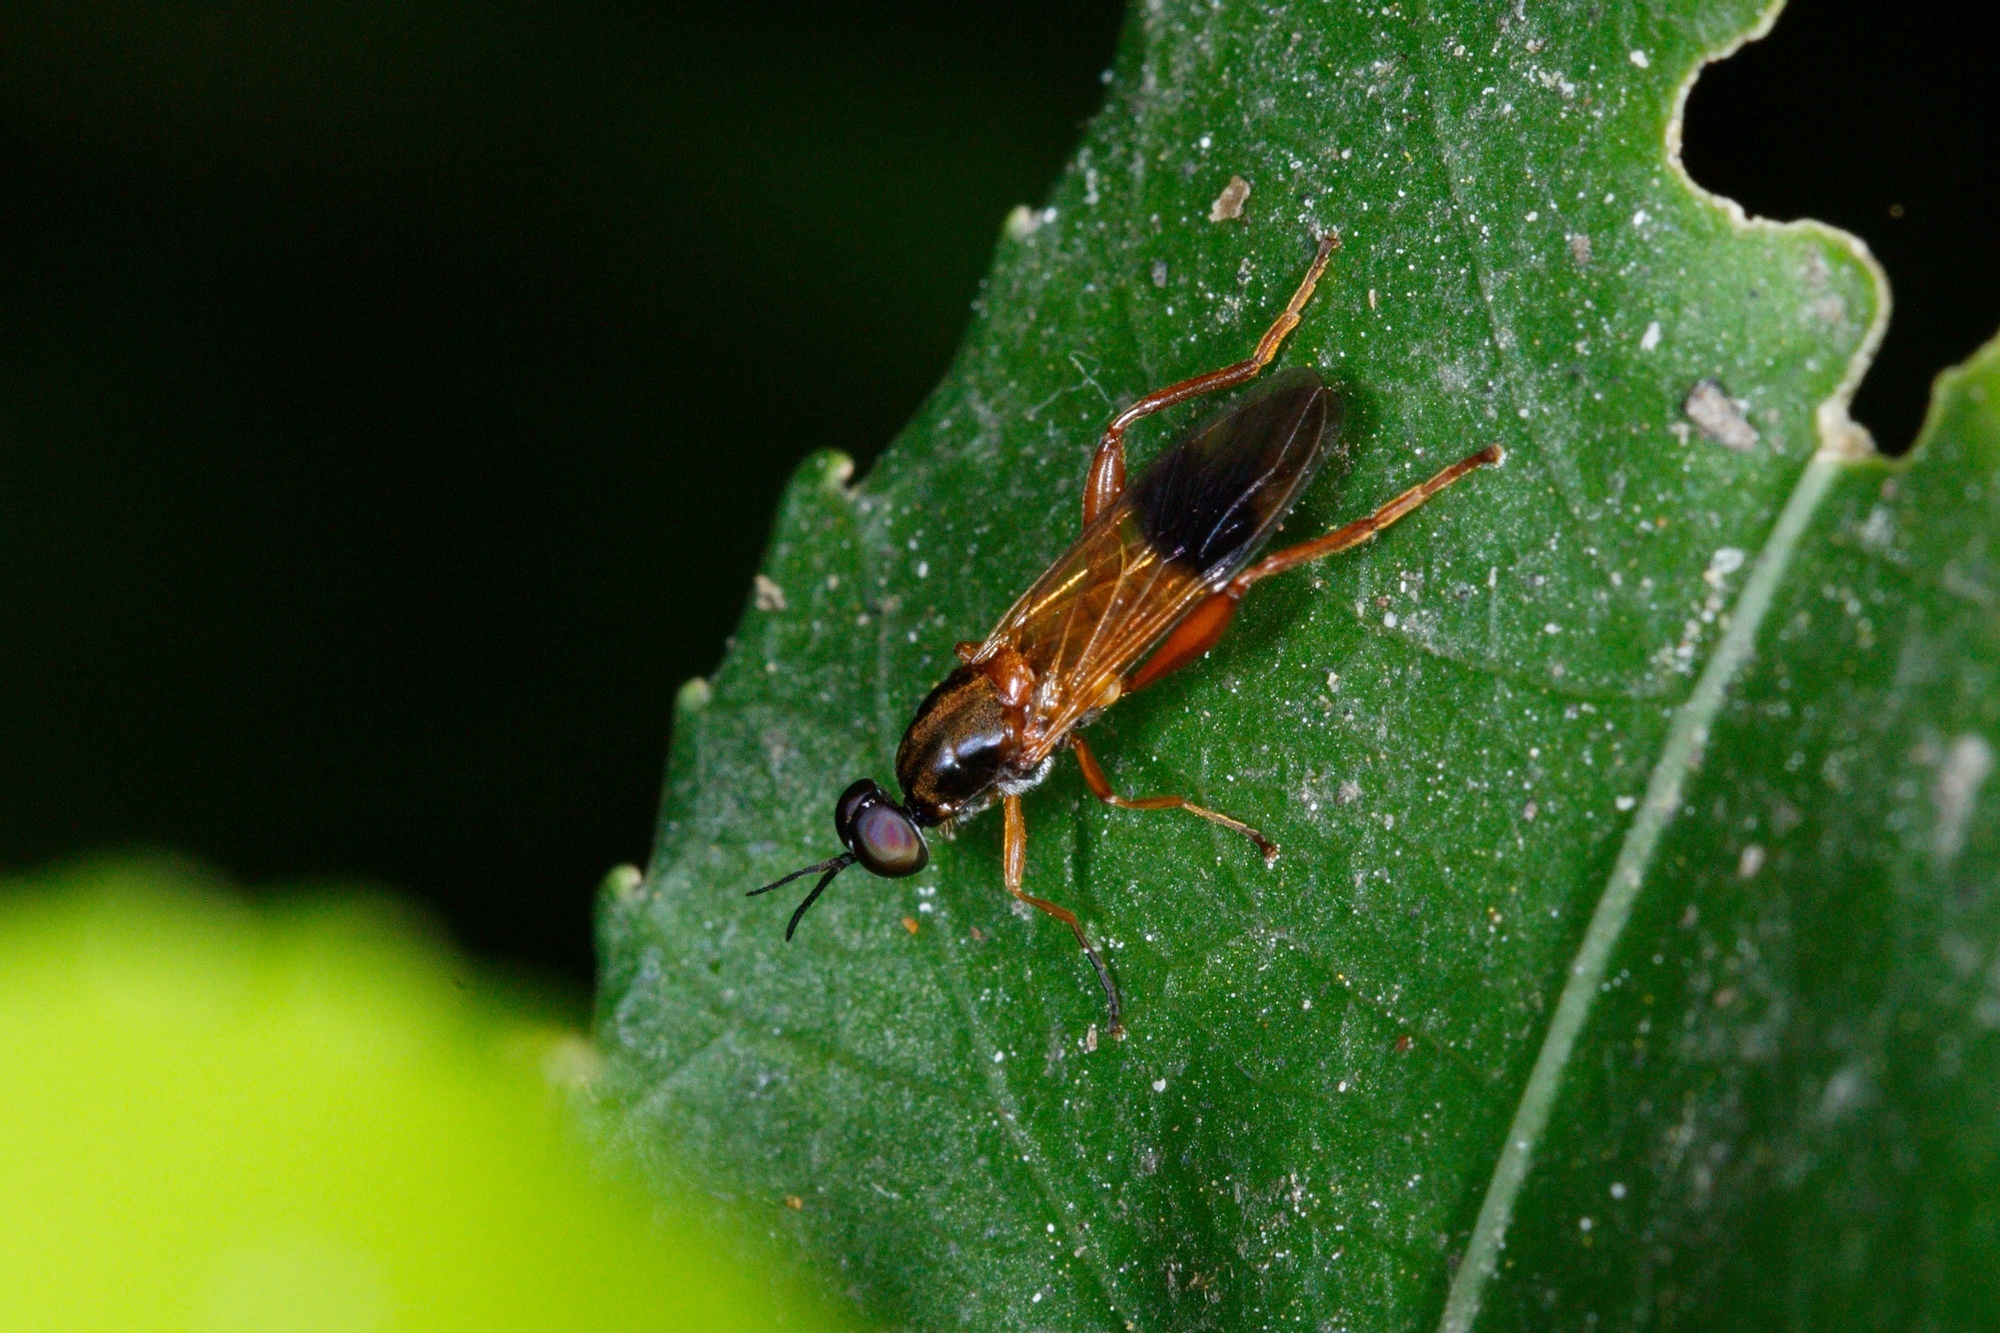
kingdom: Animalia
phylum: Arthropoda
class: Insecta
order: Diptera
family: Stratiomyidae
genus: Benhamyia
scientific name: Benhamyia apicalis
